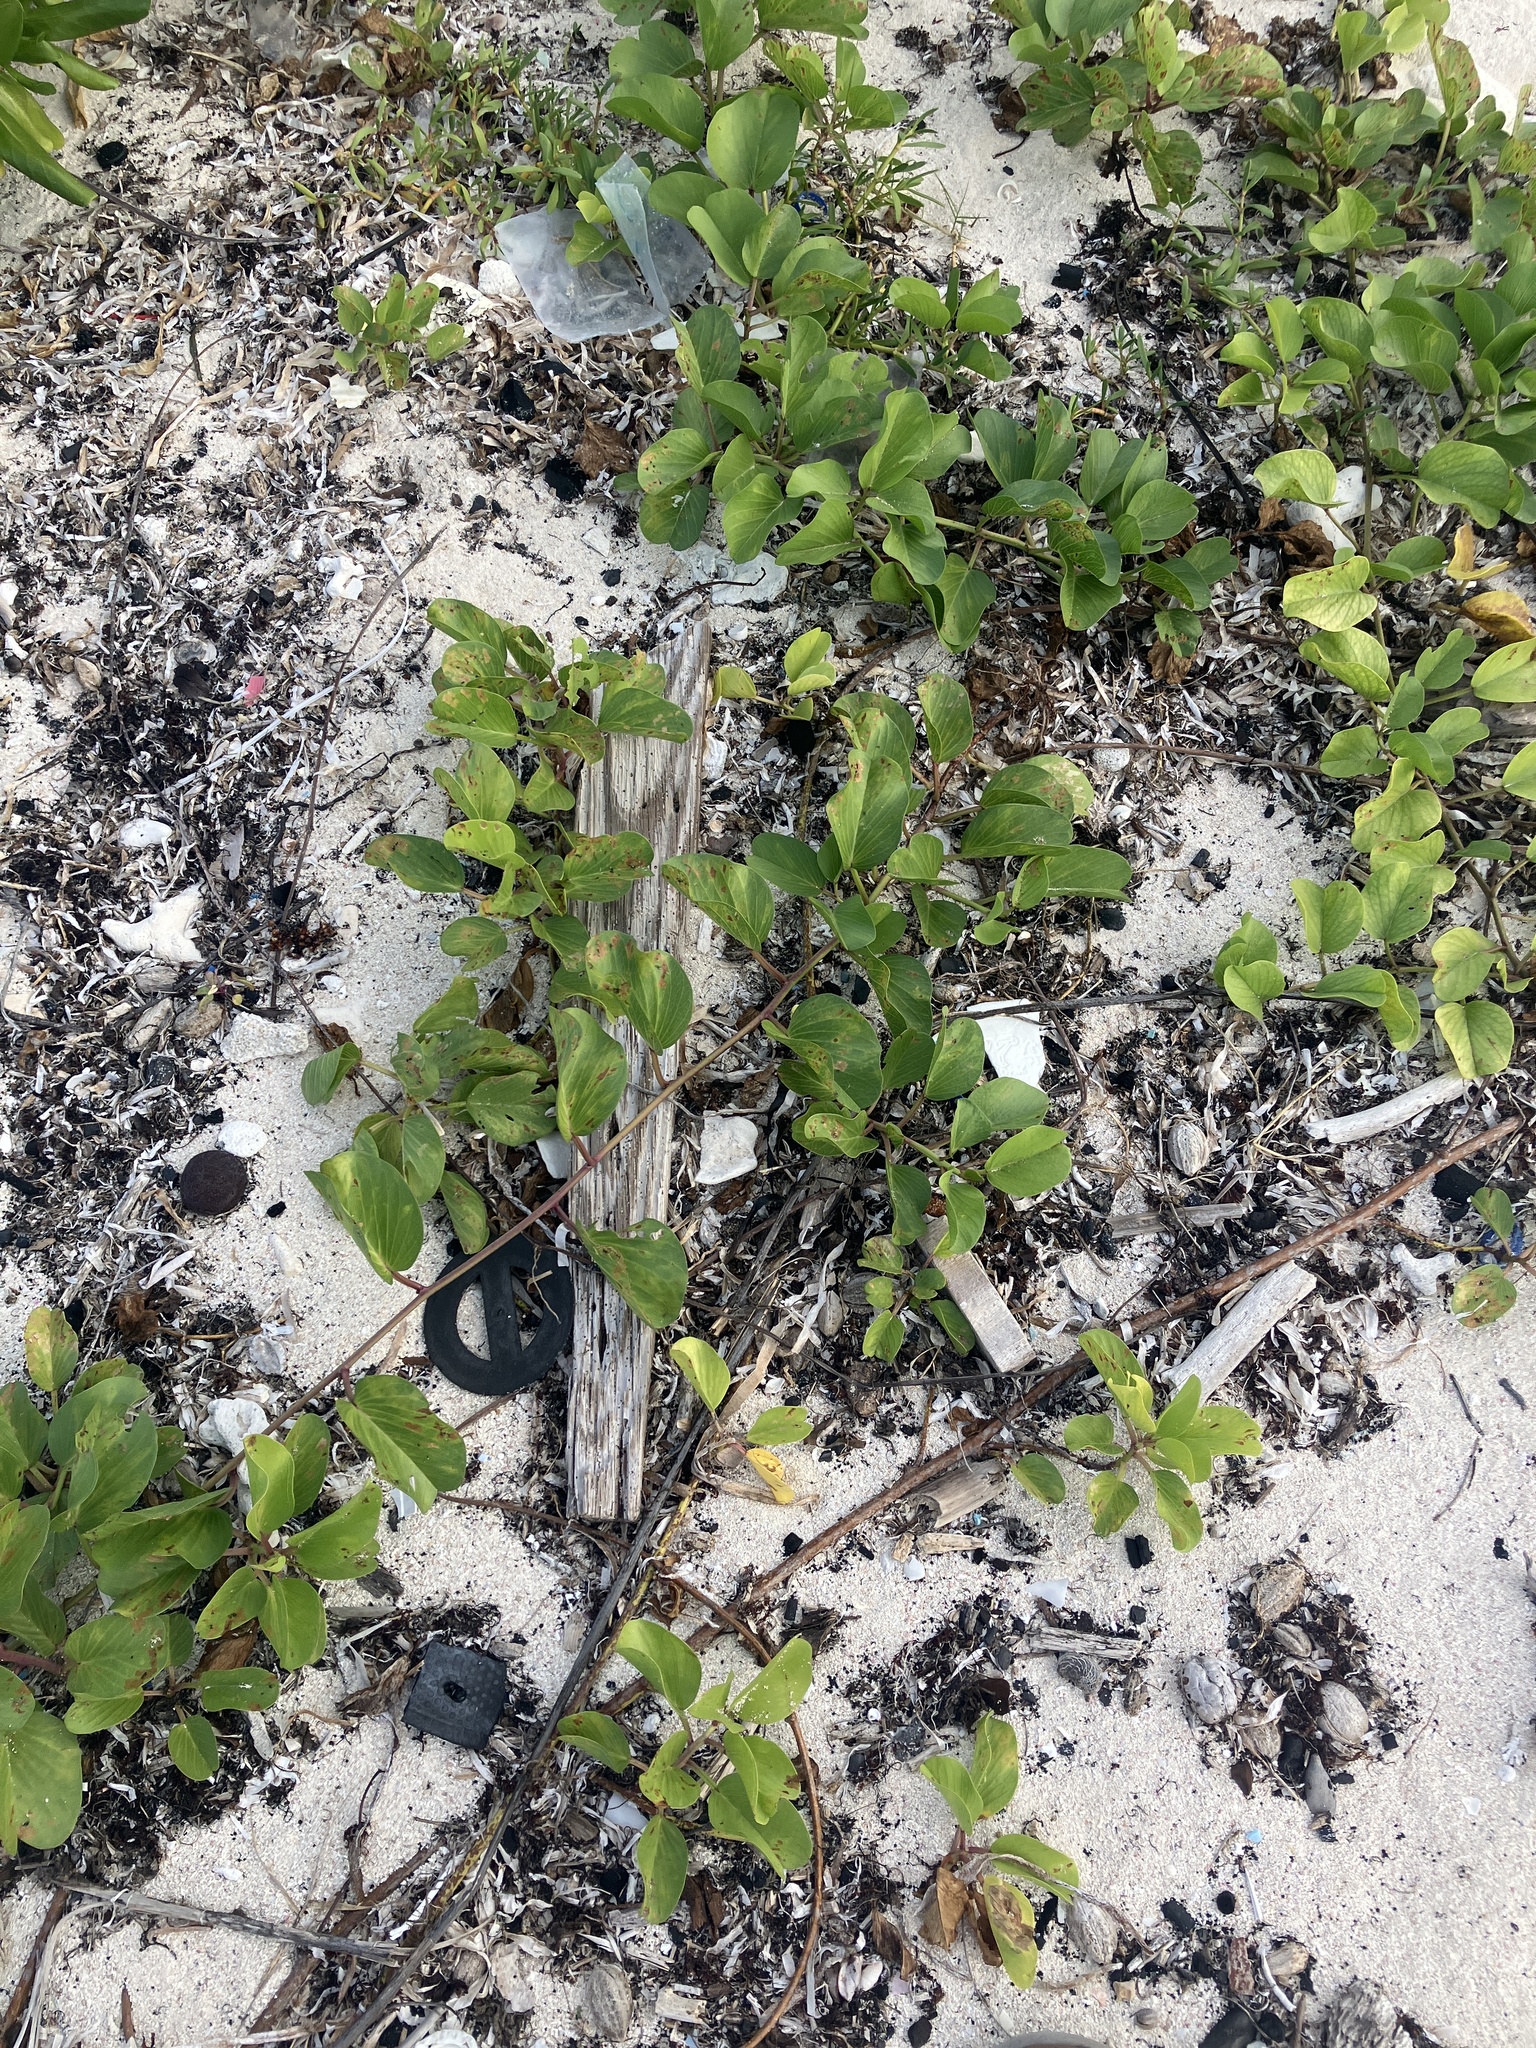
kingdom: Plantae
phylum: Tracheophyta
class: Magnoliopsida
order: Solanales
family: Convolvulaceae
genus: Ipomoea
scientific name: Ipomoea pes-caprae
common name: Beach morning glory
